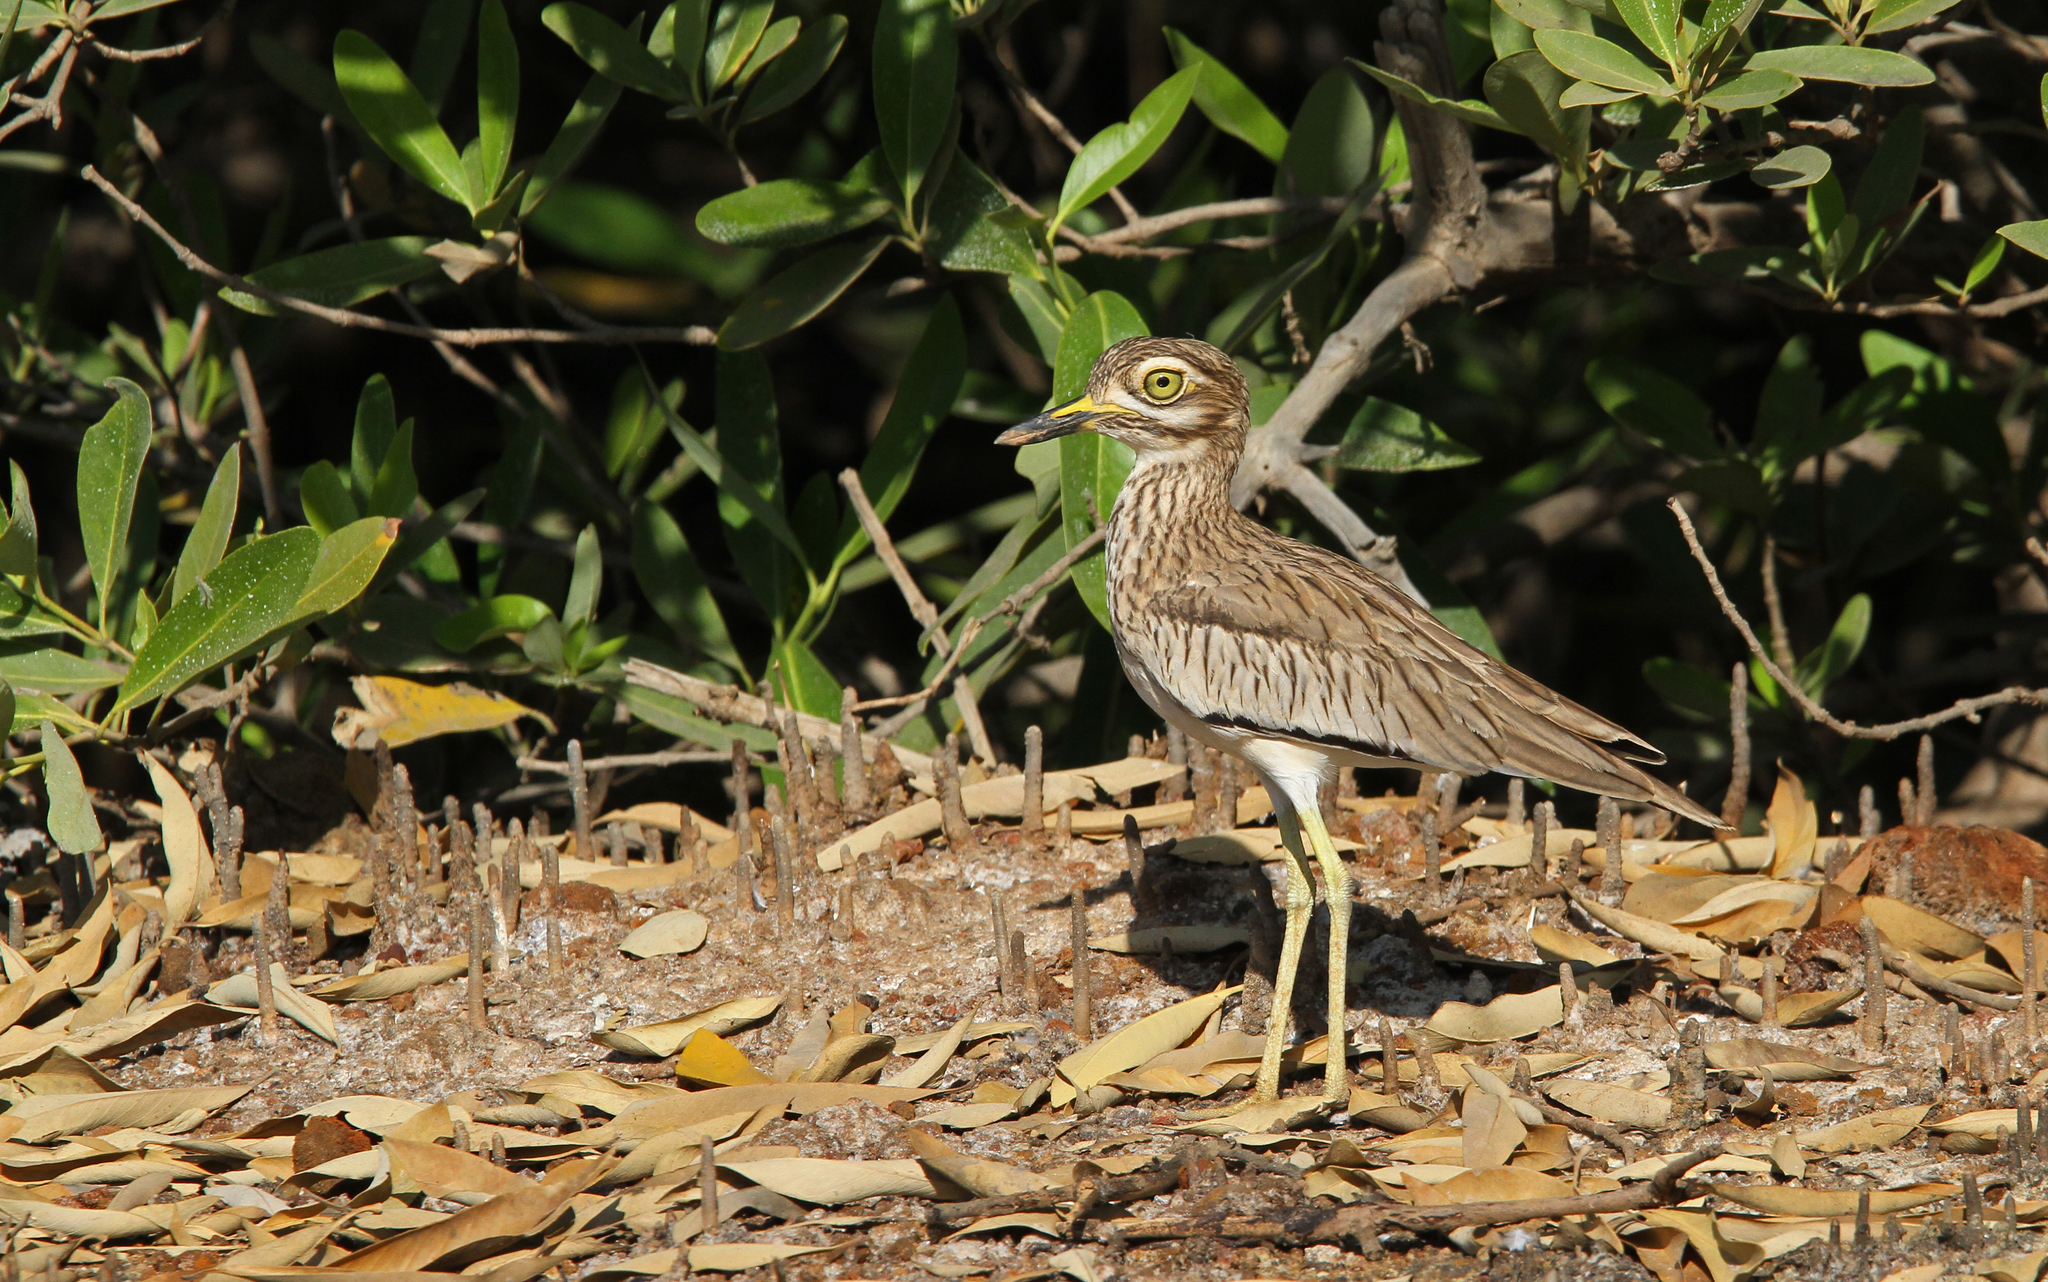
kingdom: Animalia
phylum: Chordata
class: Aves
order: Charadriiformes
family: Burhinidae
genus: Burhinus
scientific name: Burhinus senegalensis
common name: Senegal thick-knee
